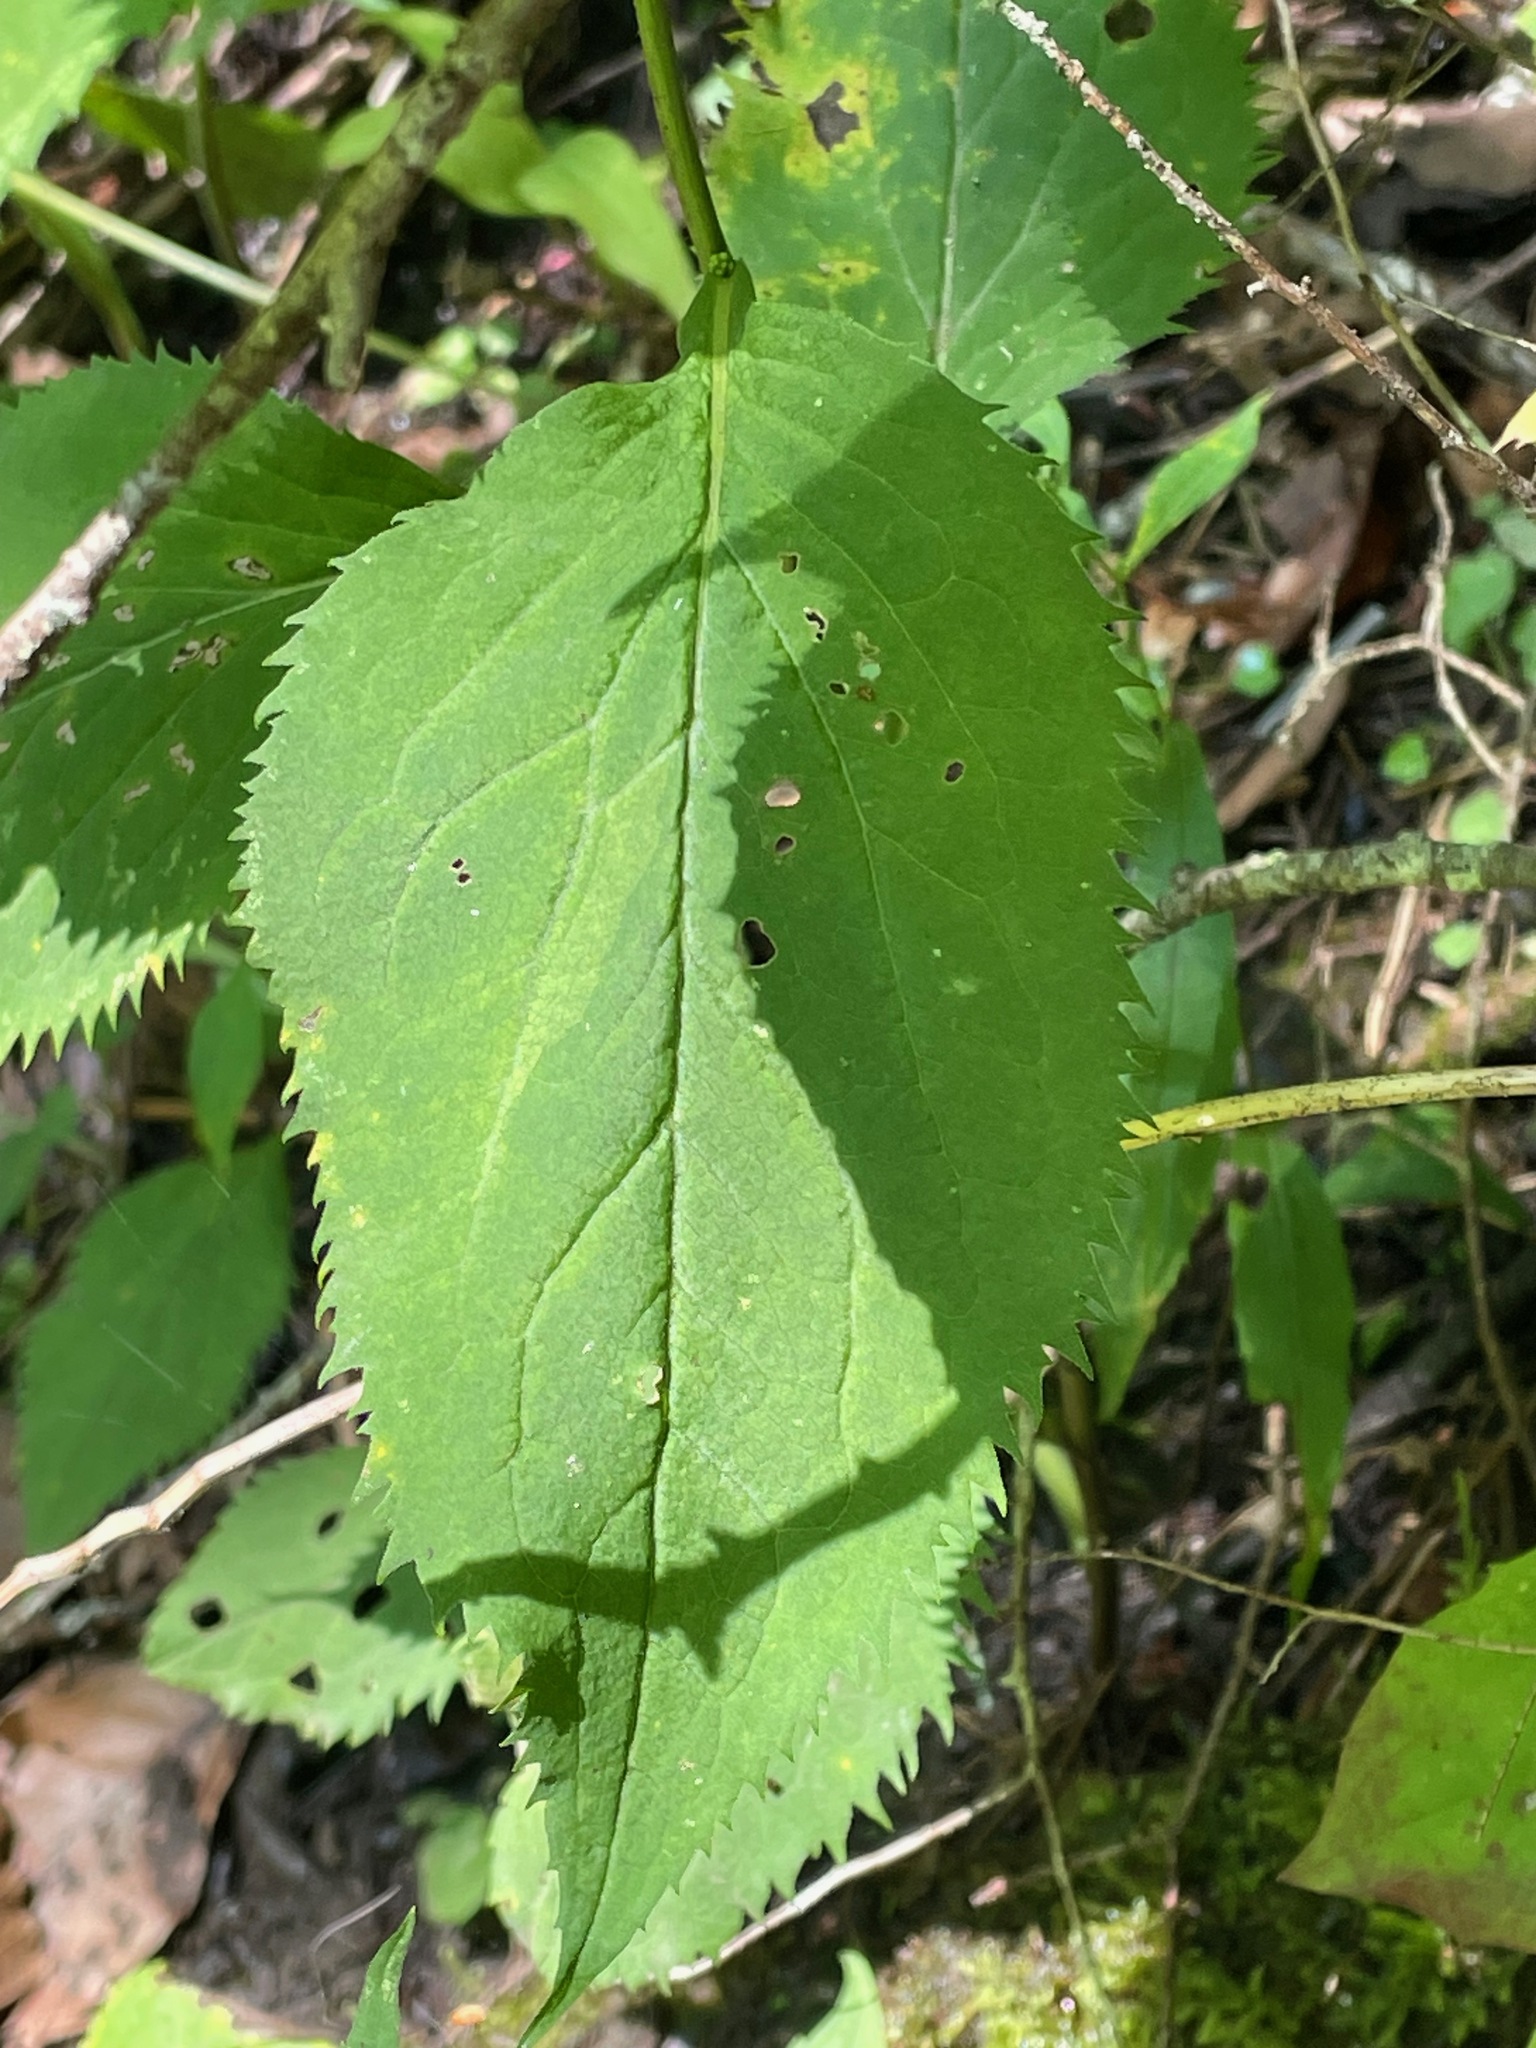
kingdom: Plantae
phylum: Tracheophyta
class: Magnoliopsida
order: Asterales
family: Asteraceae
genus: Solidago
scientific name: Solidago flexicaulis
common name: Zig-zag goldenrod
